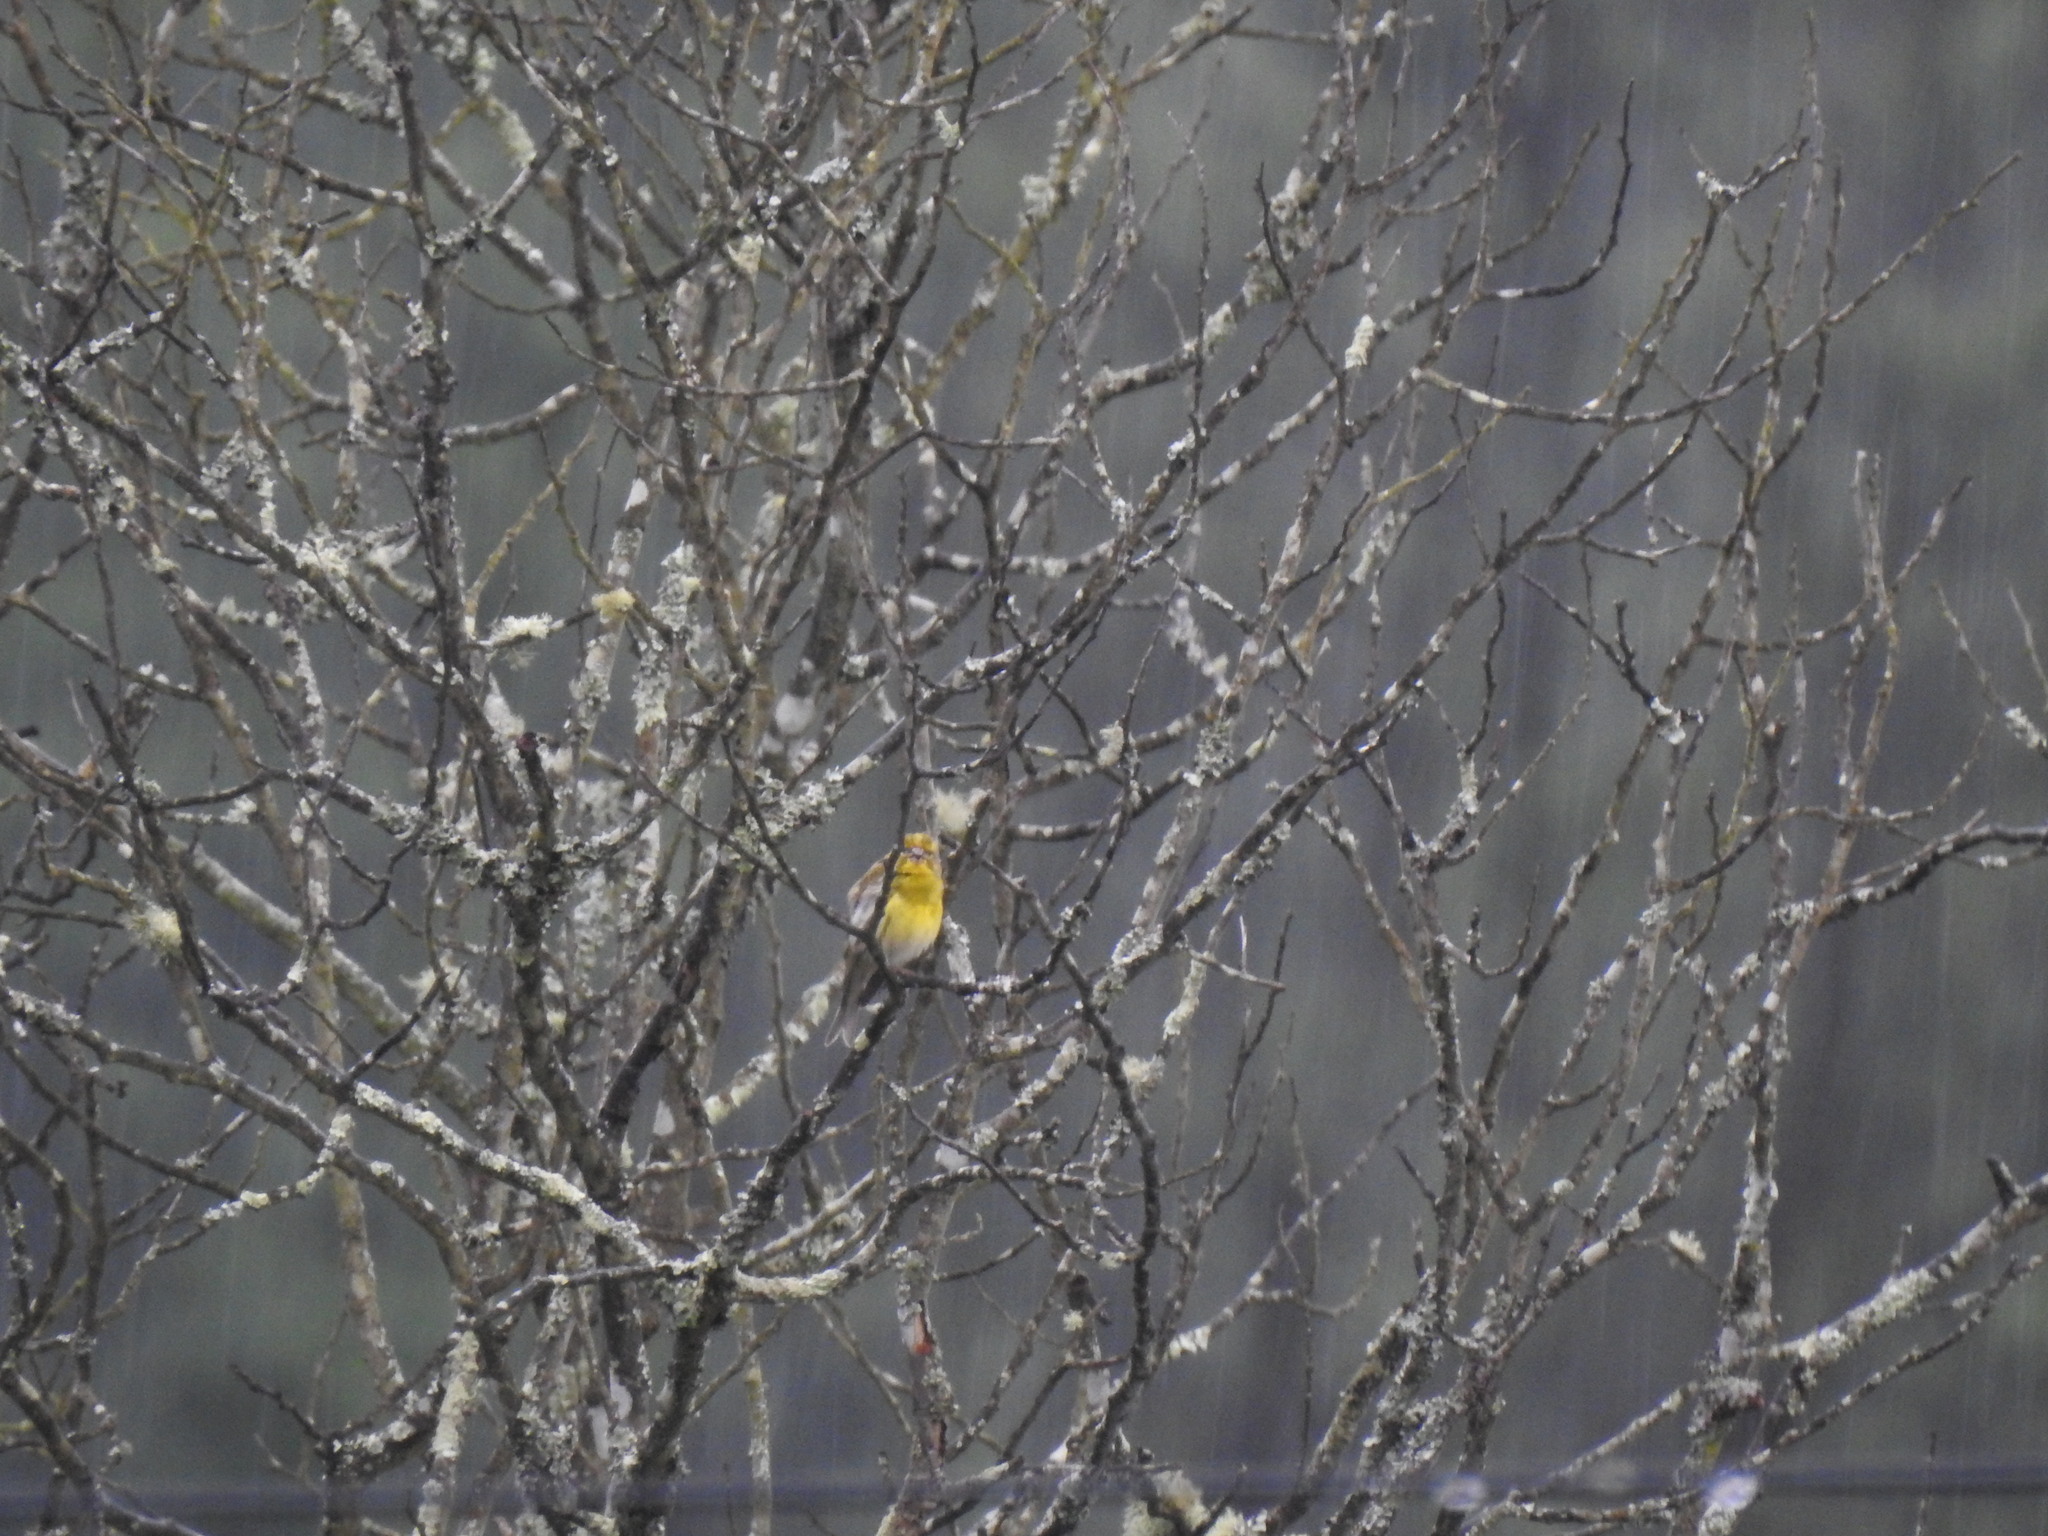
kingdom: Animalia
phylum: Chordata
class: Aves
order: Passeriformes
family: Fringillidae
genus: Serinus
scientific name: Serinus serinus
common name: European serin
